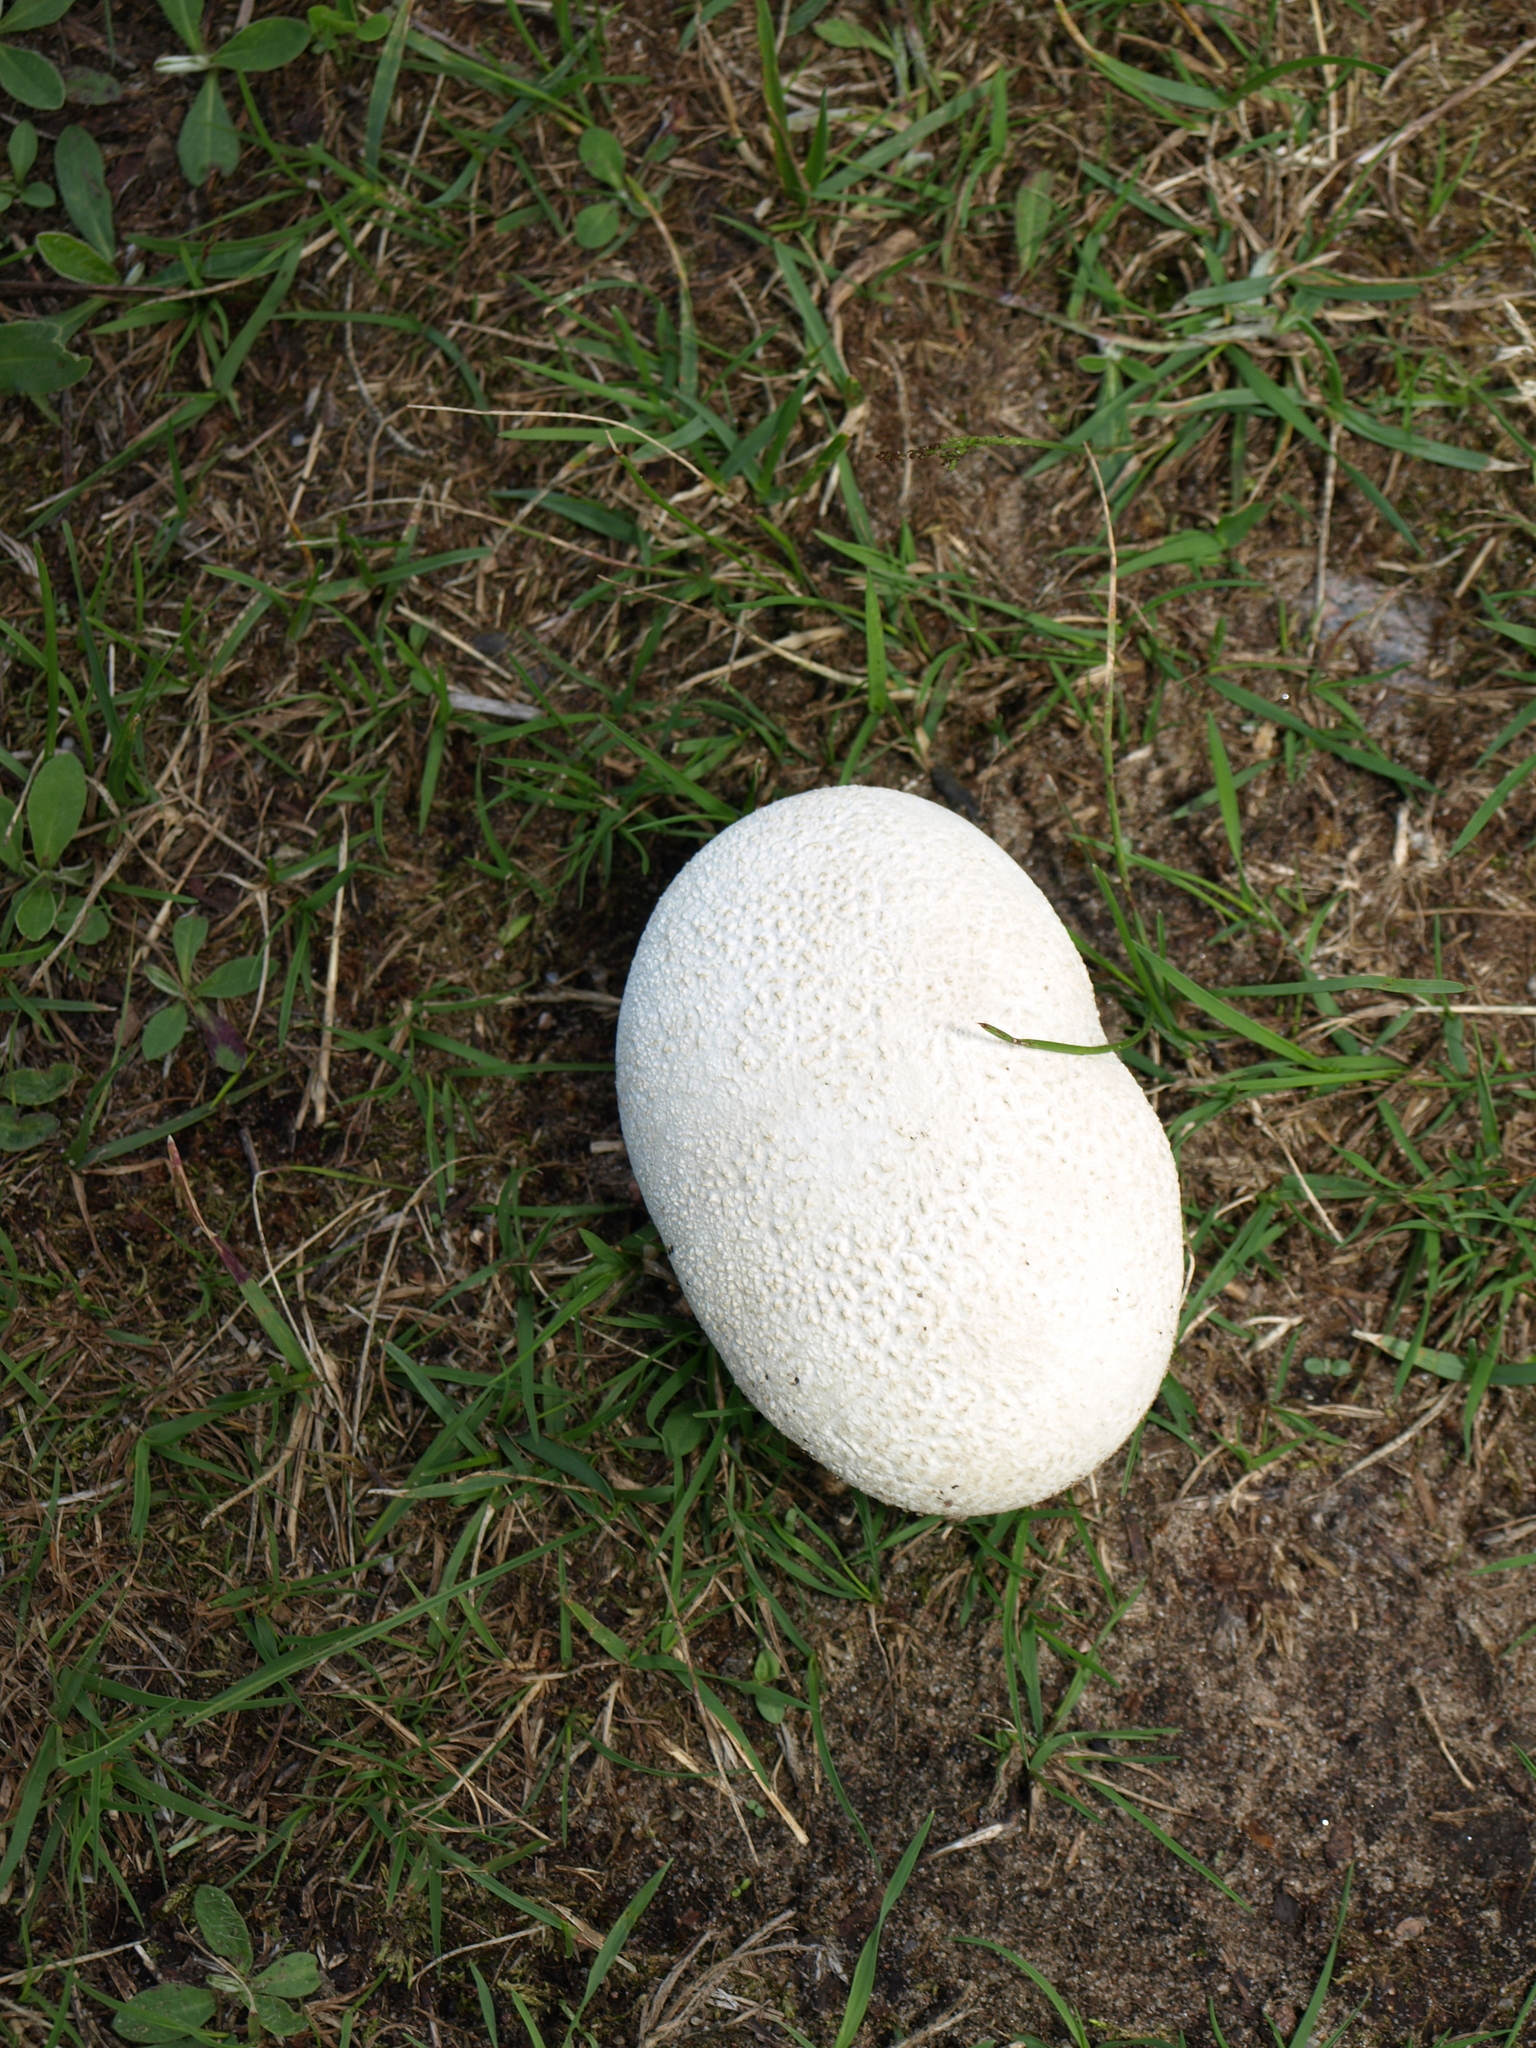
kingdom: Fungi
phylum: Basidiomycota
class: Agaricomycetes
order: Agaricales
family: Lycoperdaceae
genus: Calvatia
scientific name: Calvatia gigantea
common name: Giant puffball
